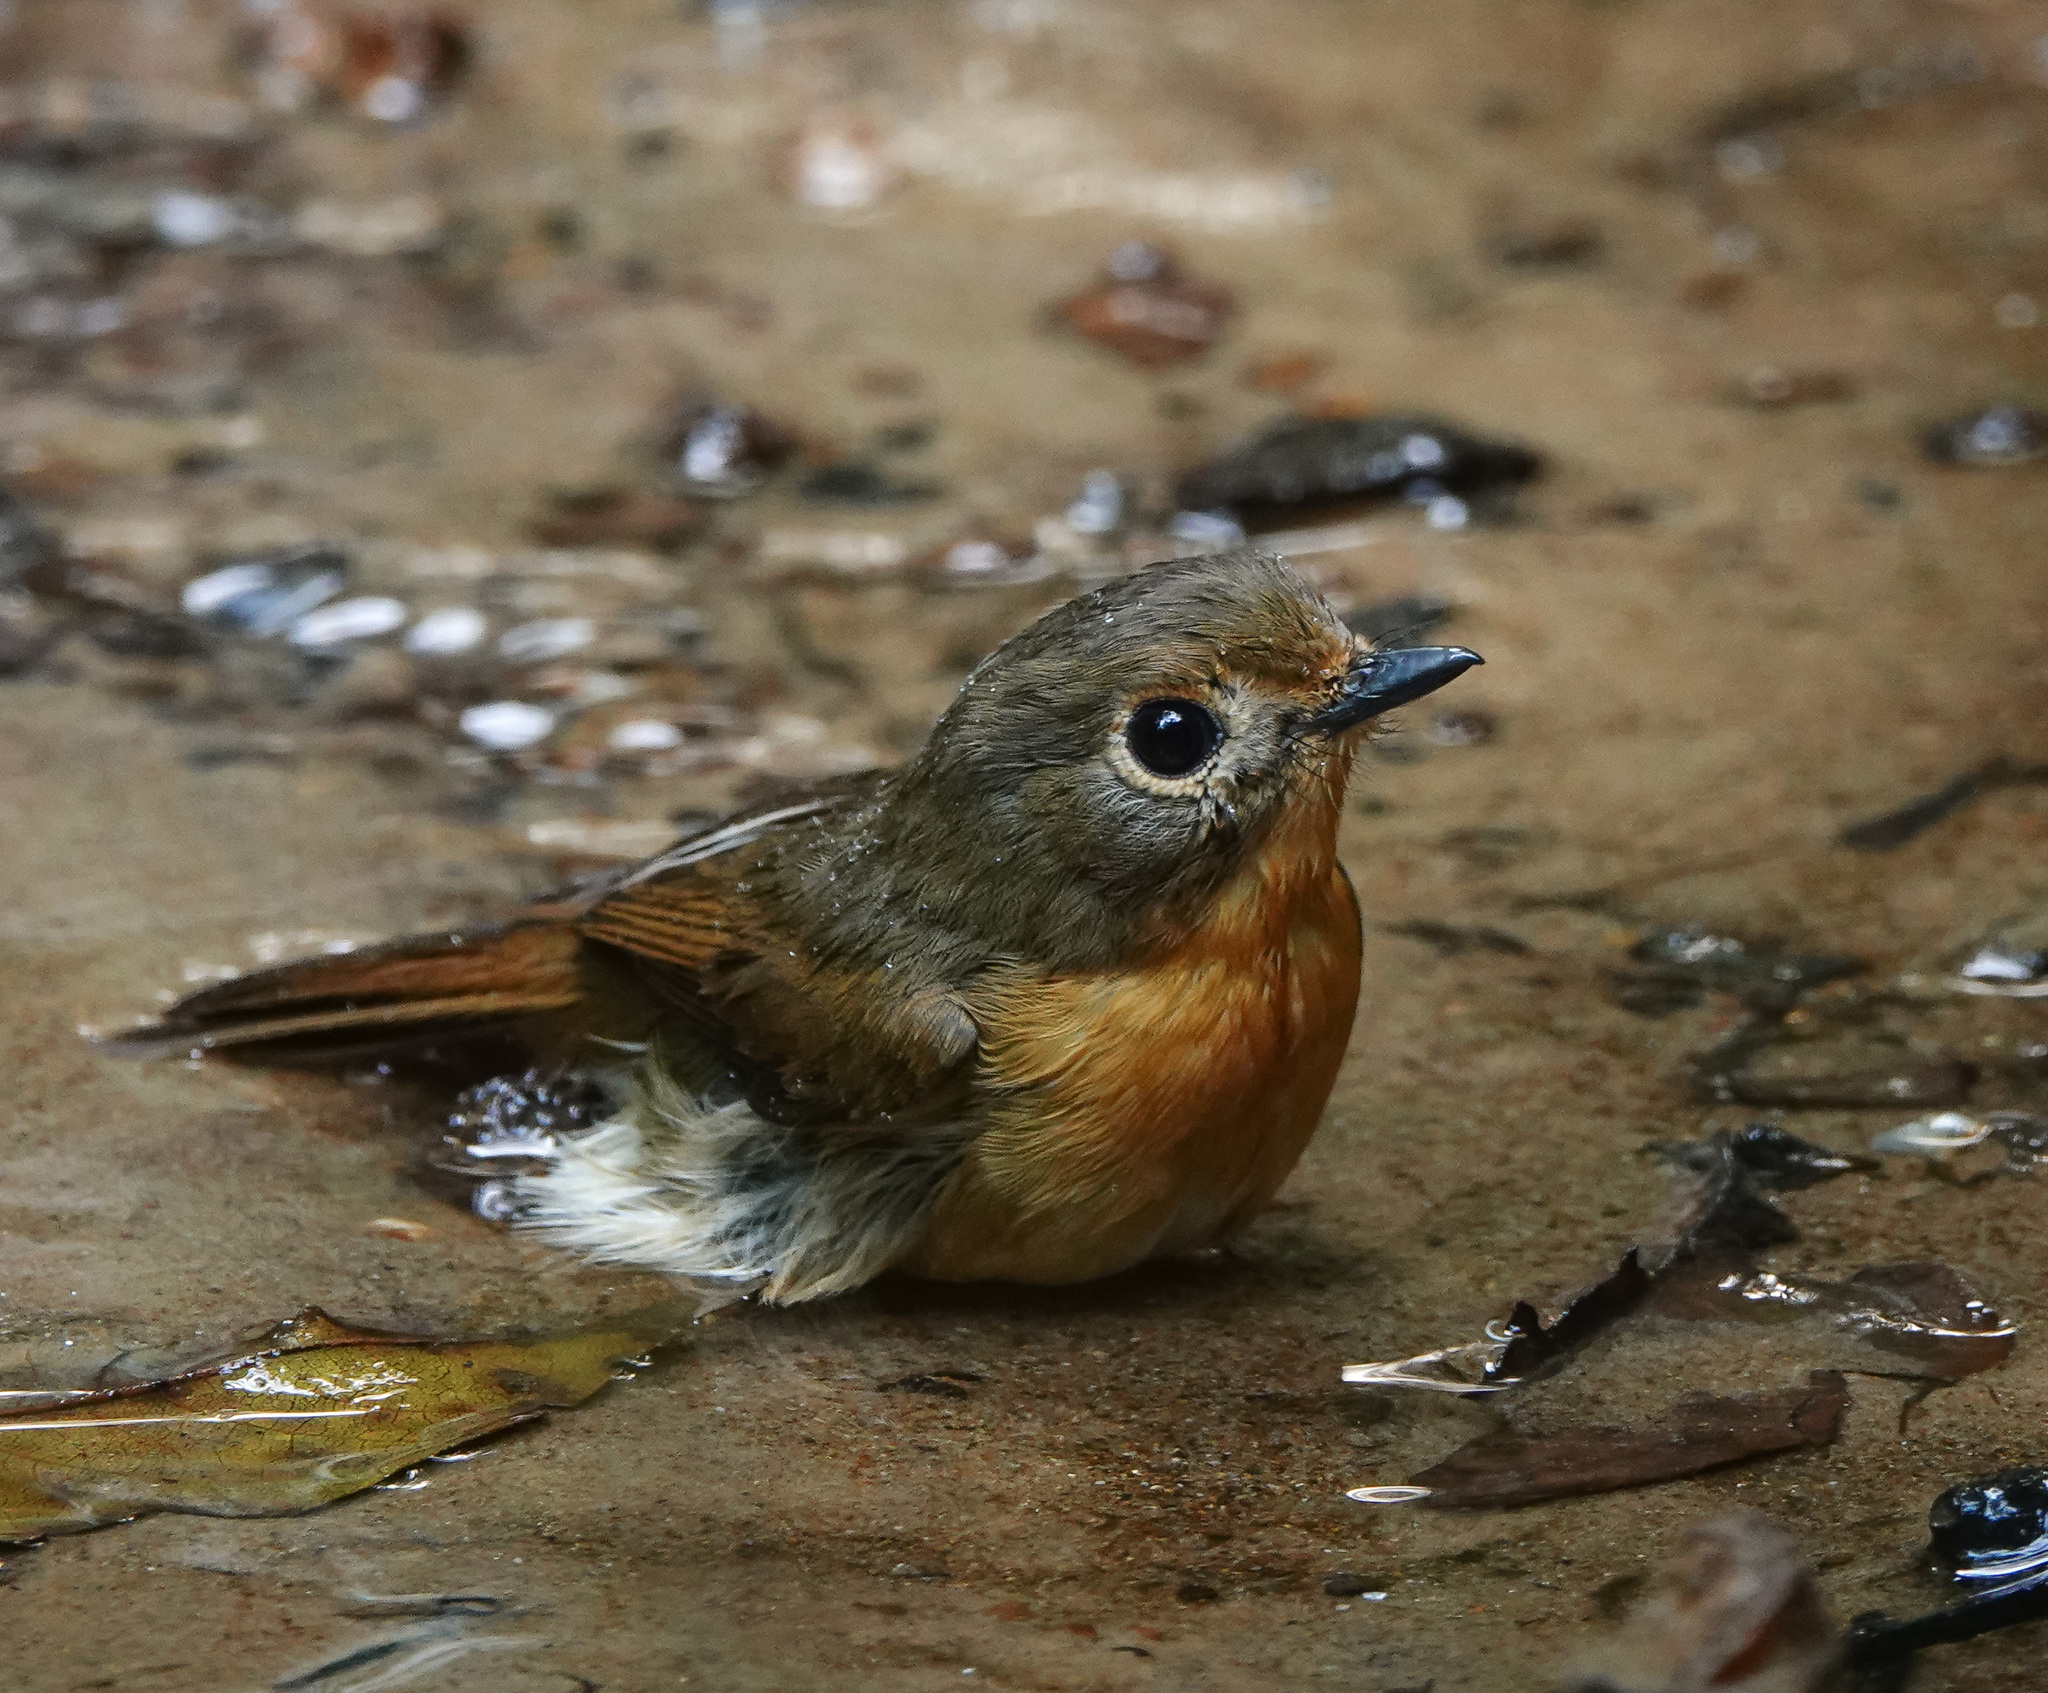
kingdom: Animalia
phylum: Chordata
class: Aves
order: Passeriformes
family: Muscicapidae
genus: Cyornis
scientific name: Cyornis whitei
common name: Hill blue flycatcher
